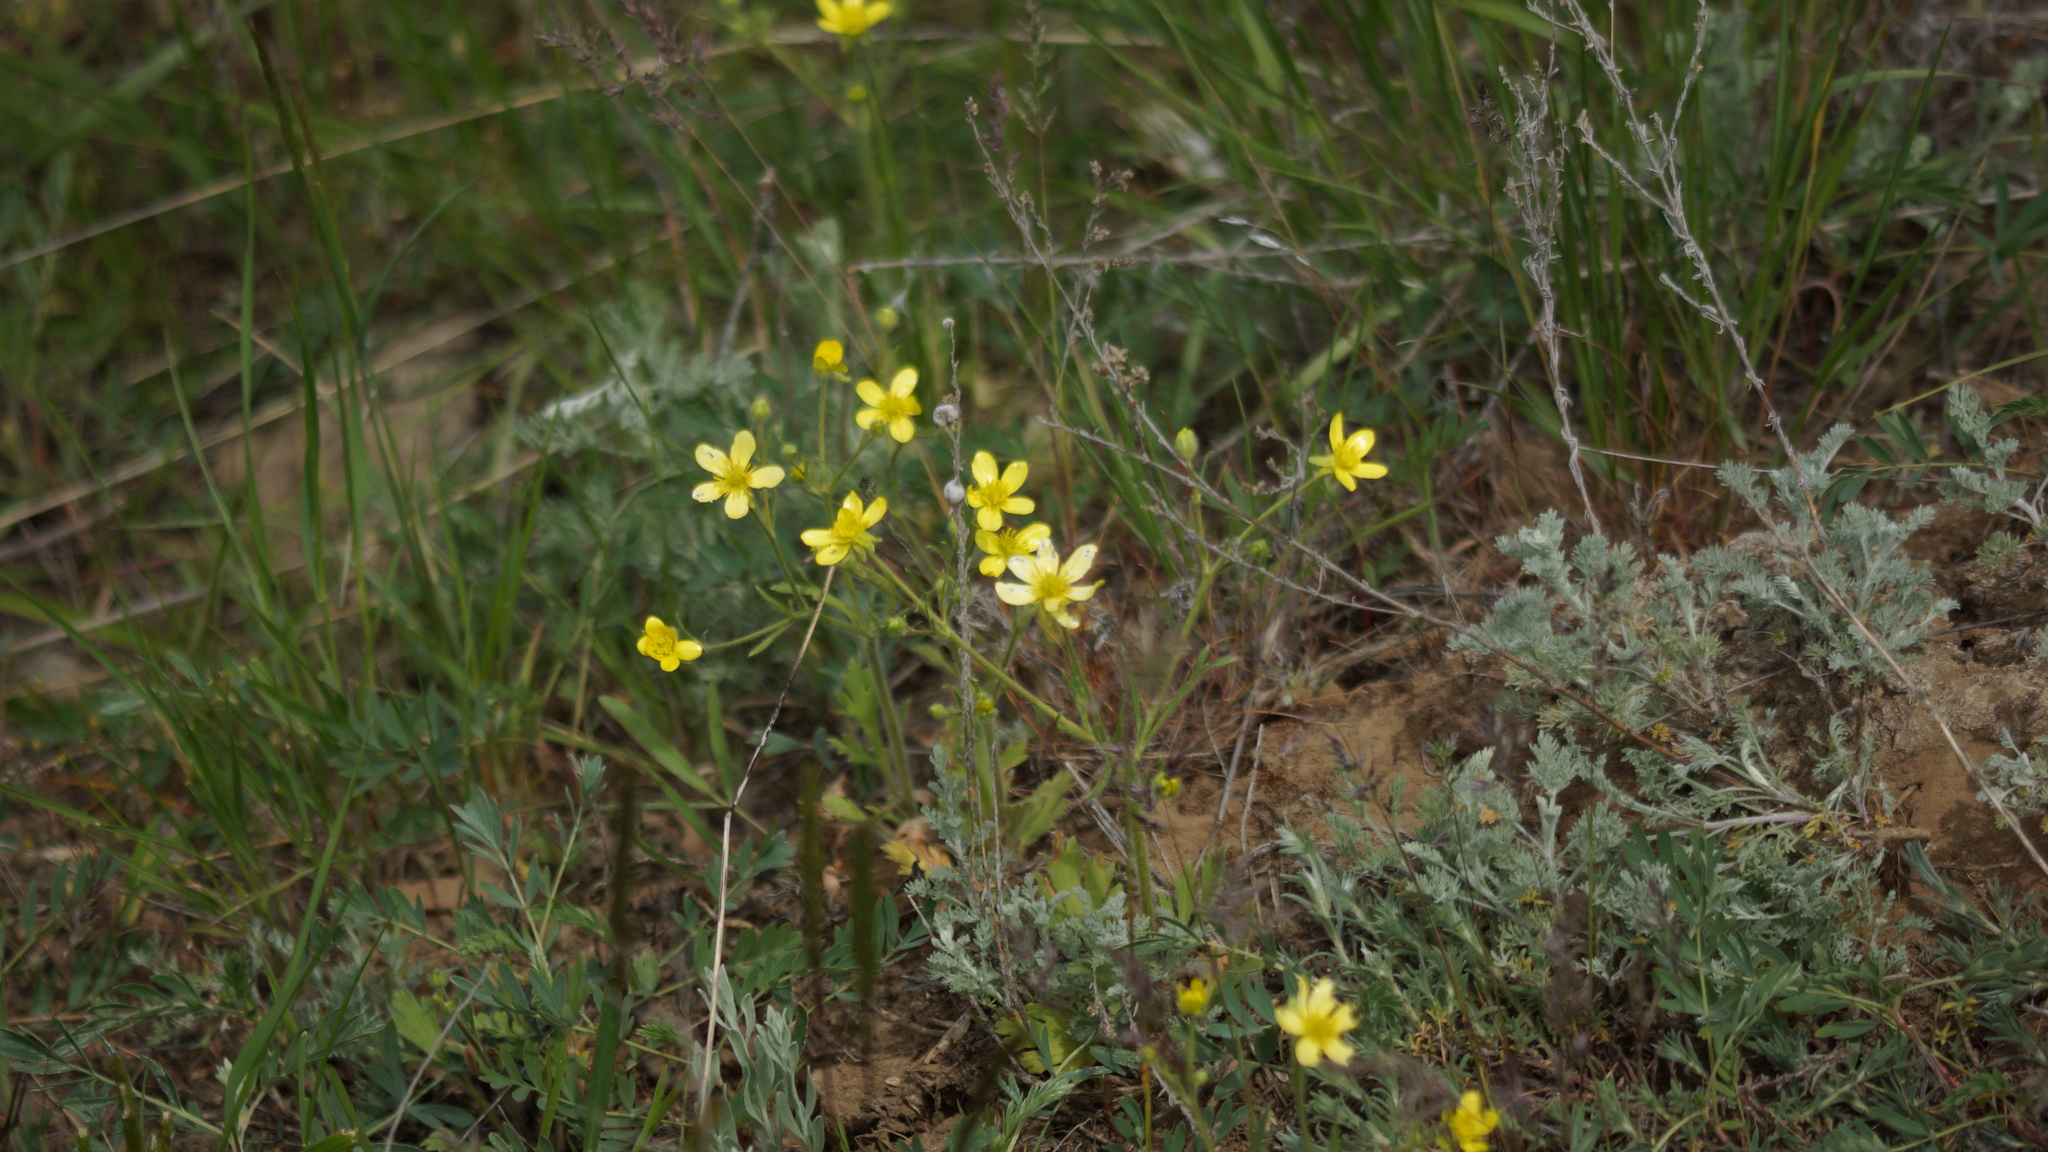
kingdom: Plantae
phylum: Tracheophyta
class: Magnoliopsida
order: Ranunculales
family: Ranunculaceae
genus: Ranunculus
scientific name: Ranunculus oxyspermus
